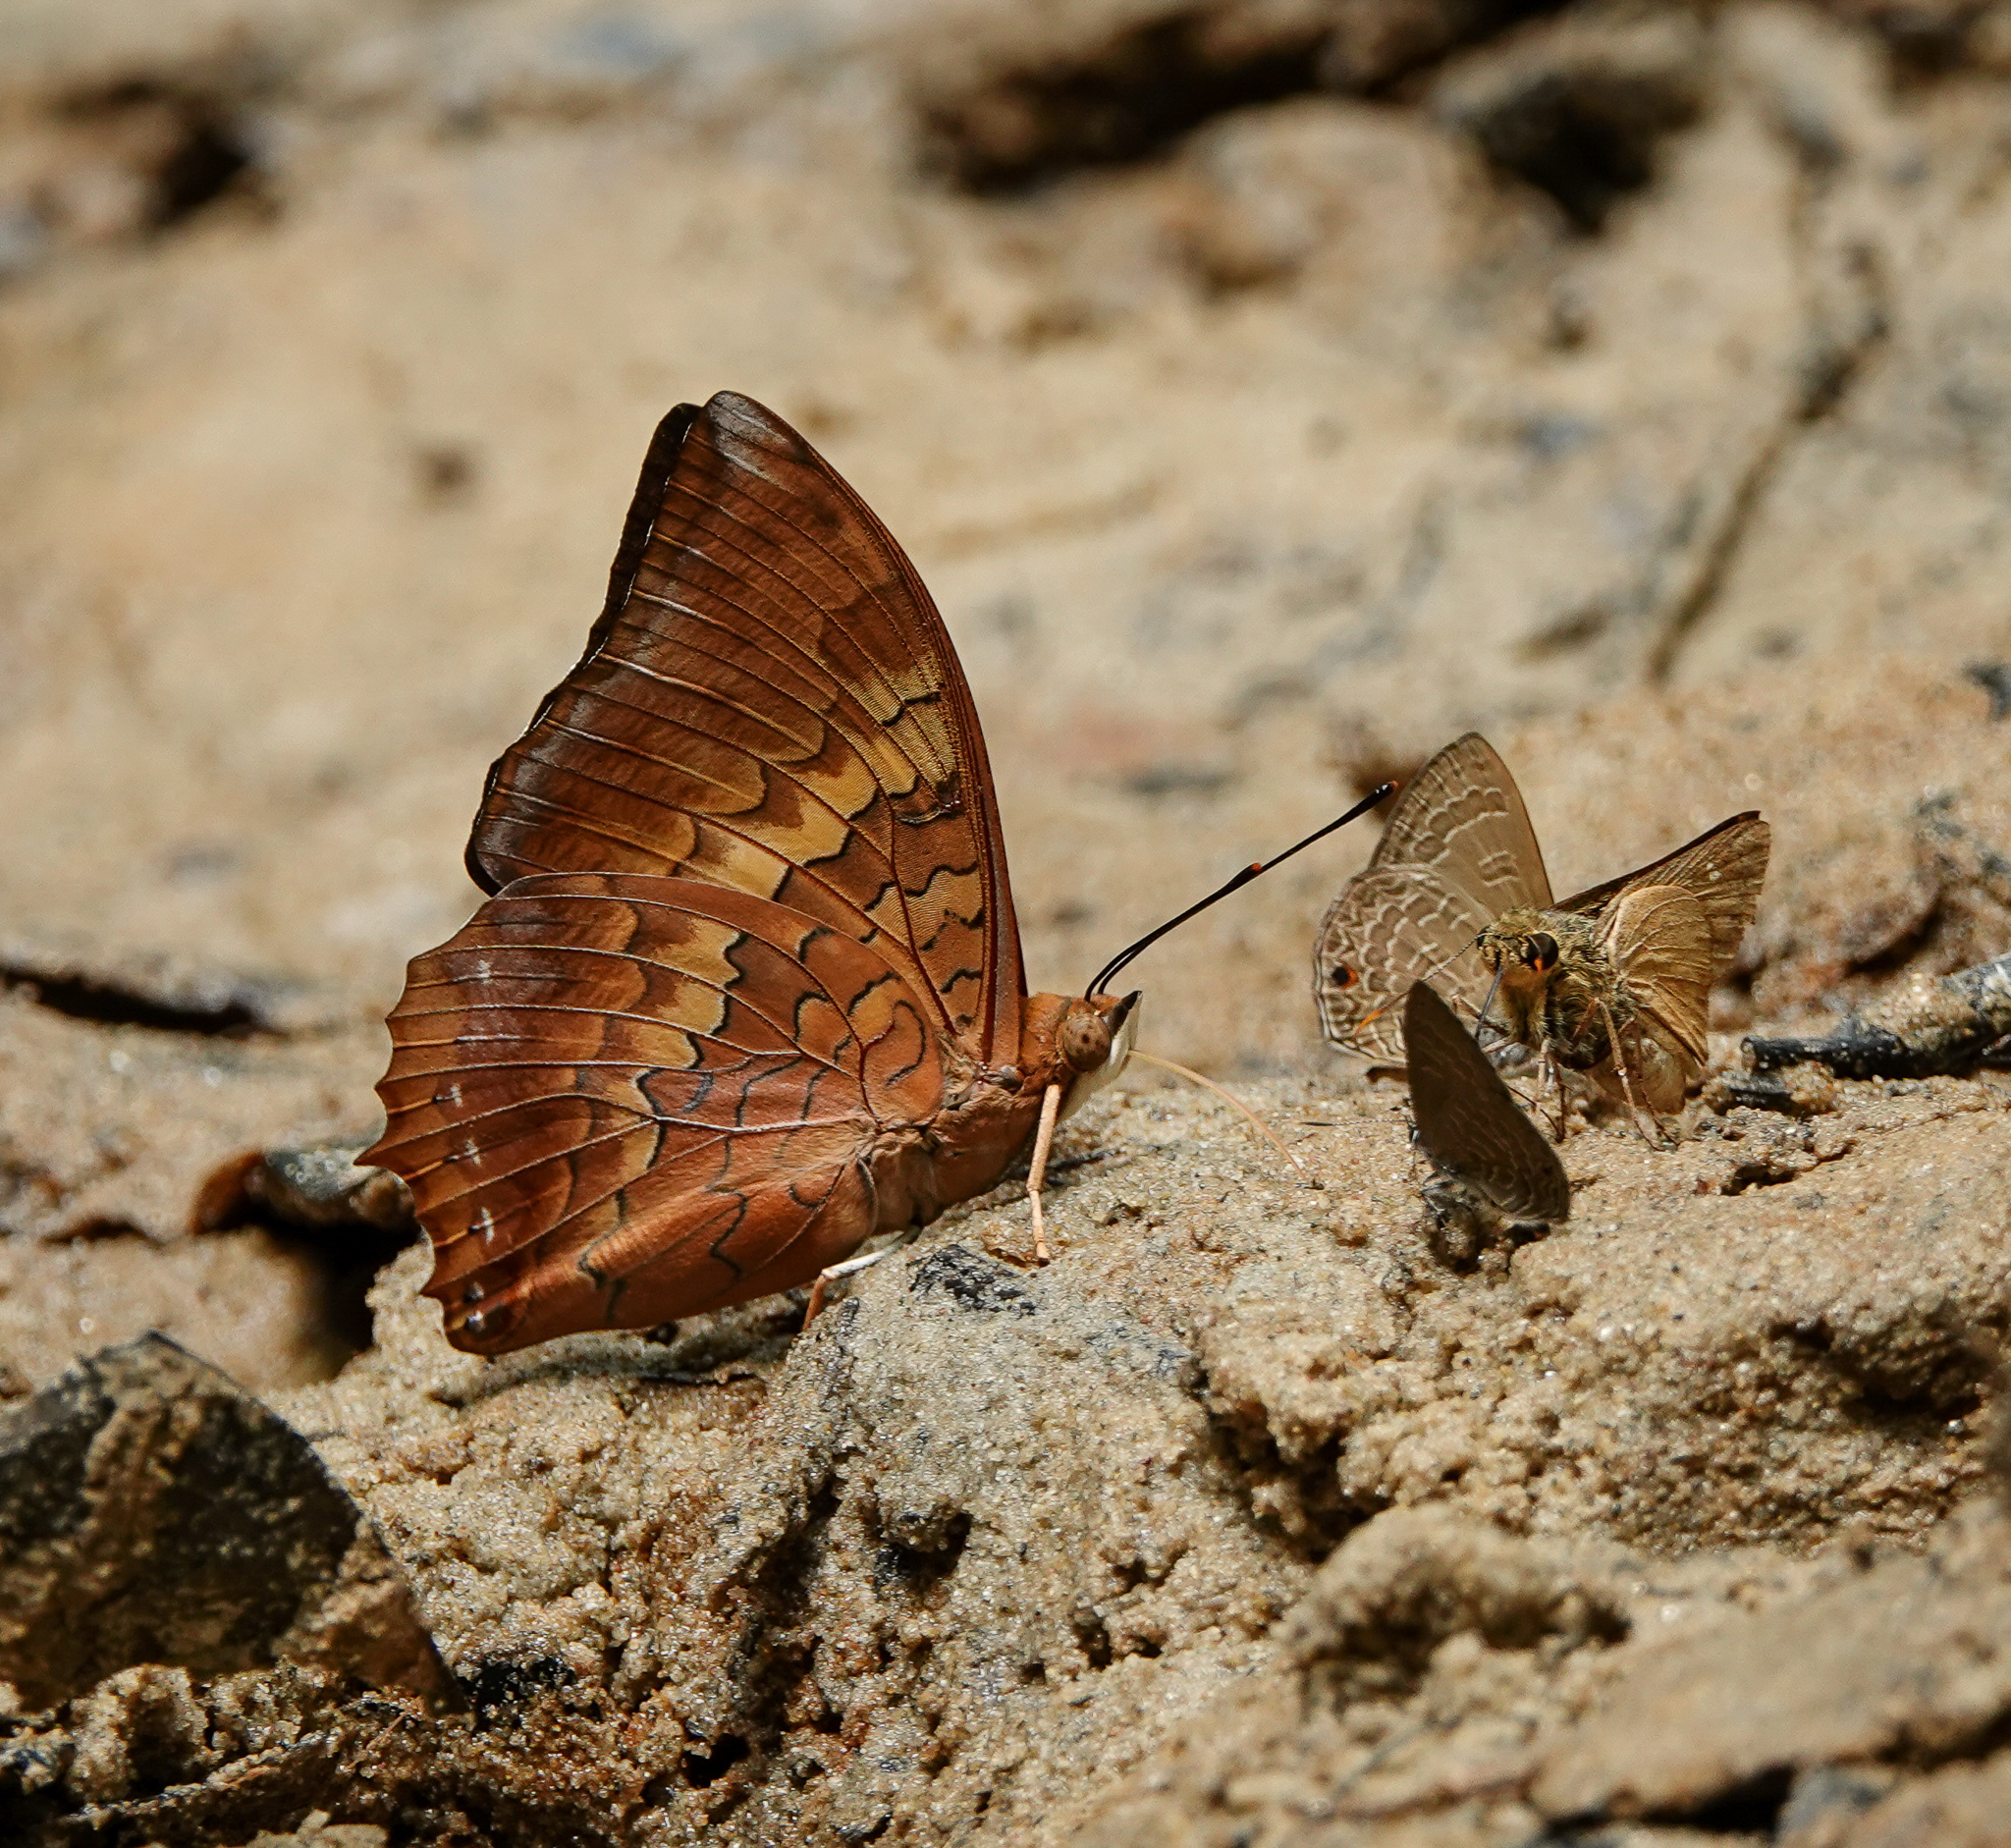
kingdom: Animalia
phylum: Arthropoda
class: Insecta
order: Lepidoptera
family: Nymphalidae
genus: Charaxes
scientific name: Charaxes bernardus
